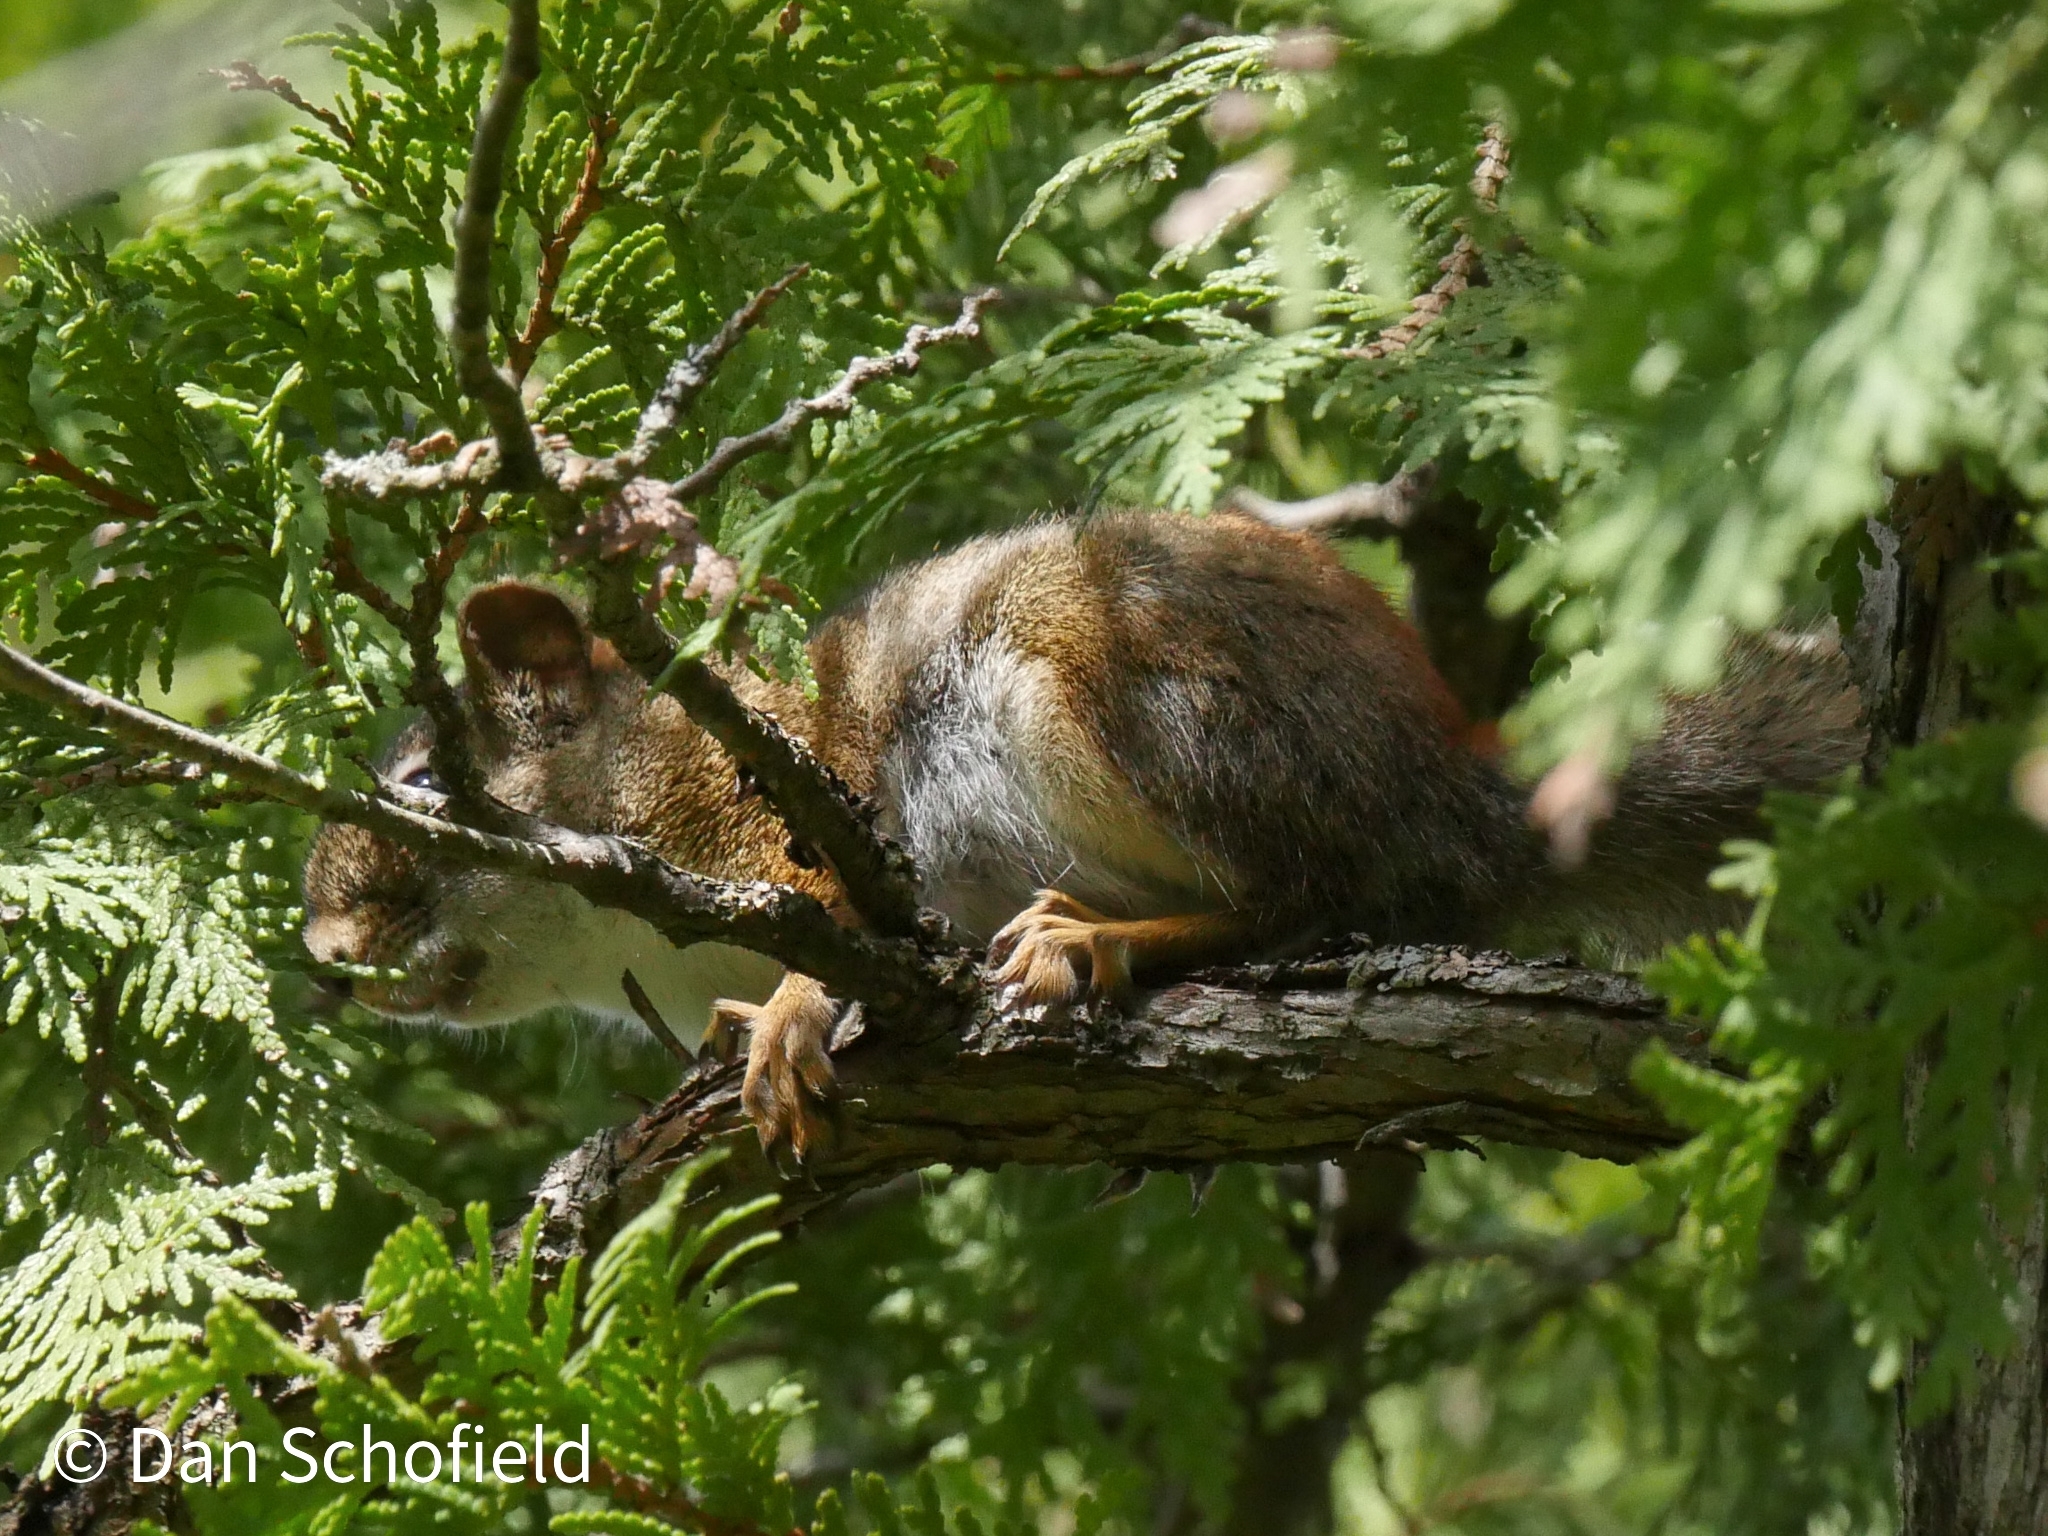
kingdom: Animalia
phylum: Chordata
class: Mammalia
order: Rodentia
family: Sciuridae
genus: Tamiasciurus
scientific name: Tamiasciurus hudsonicus
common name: Red squirrel
